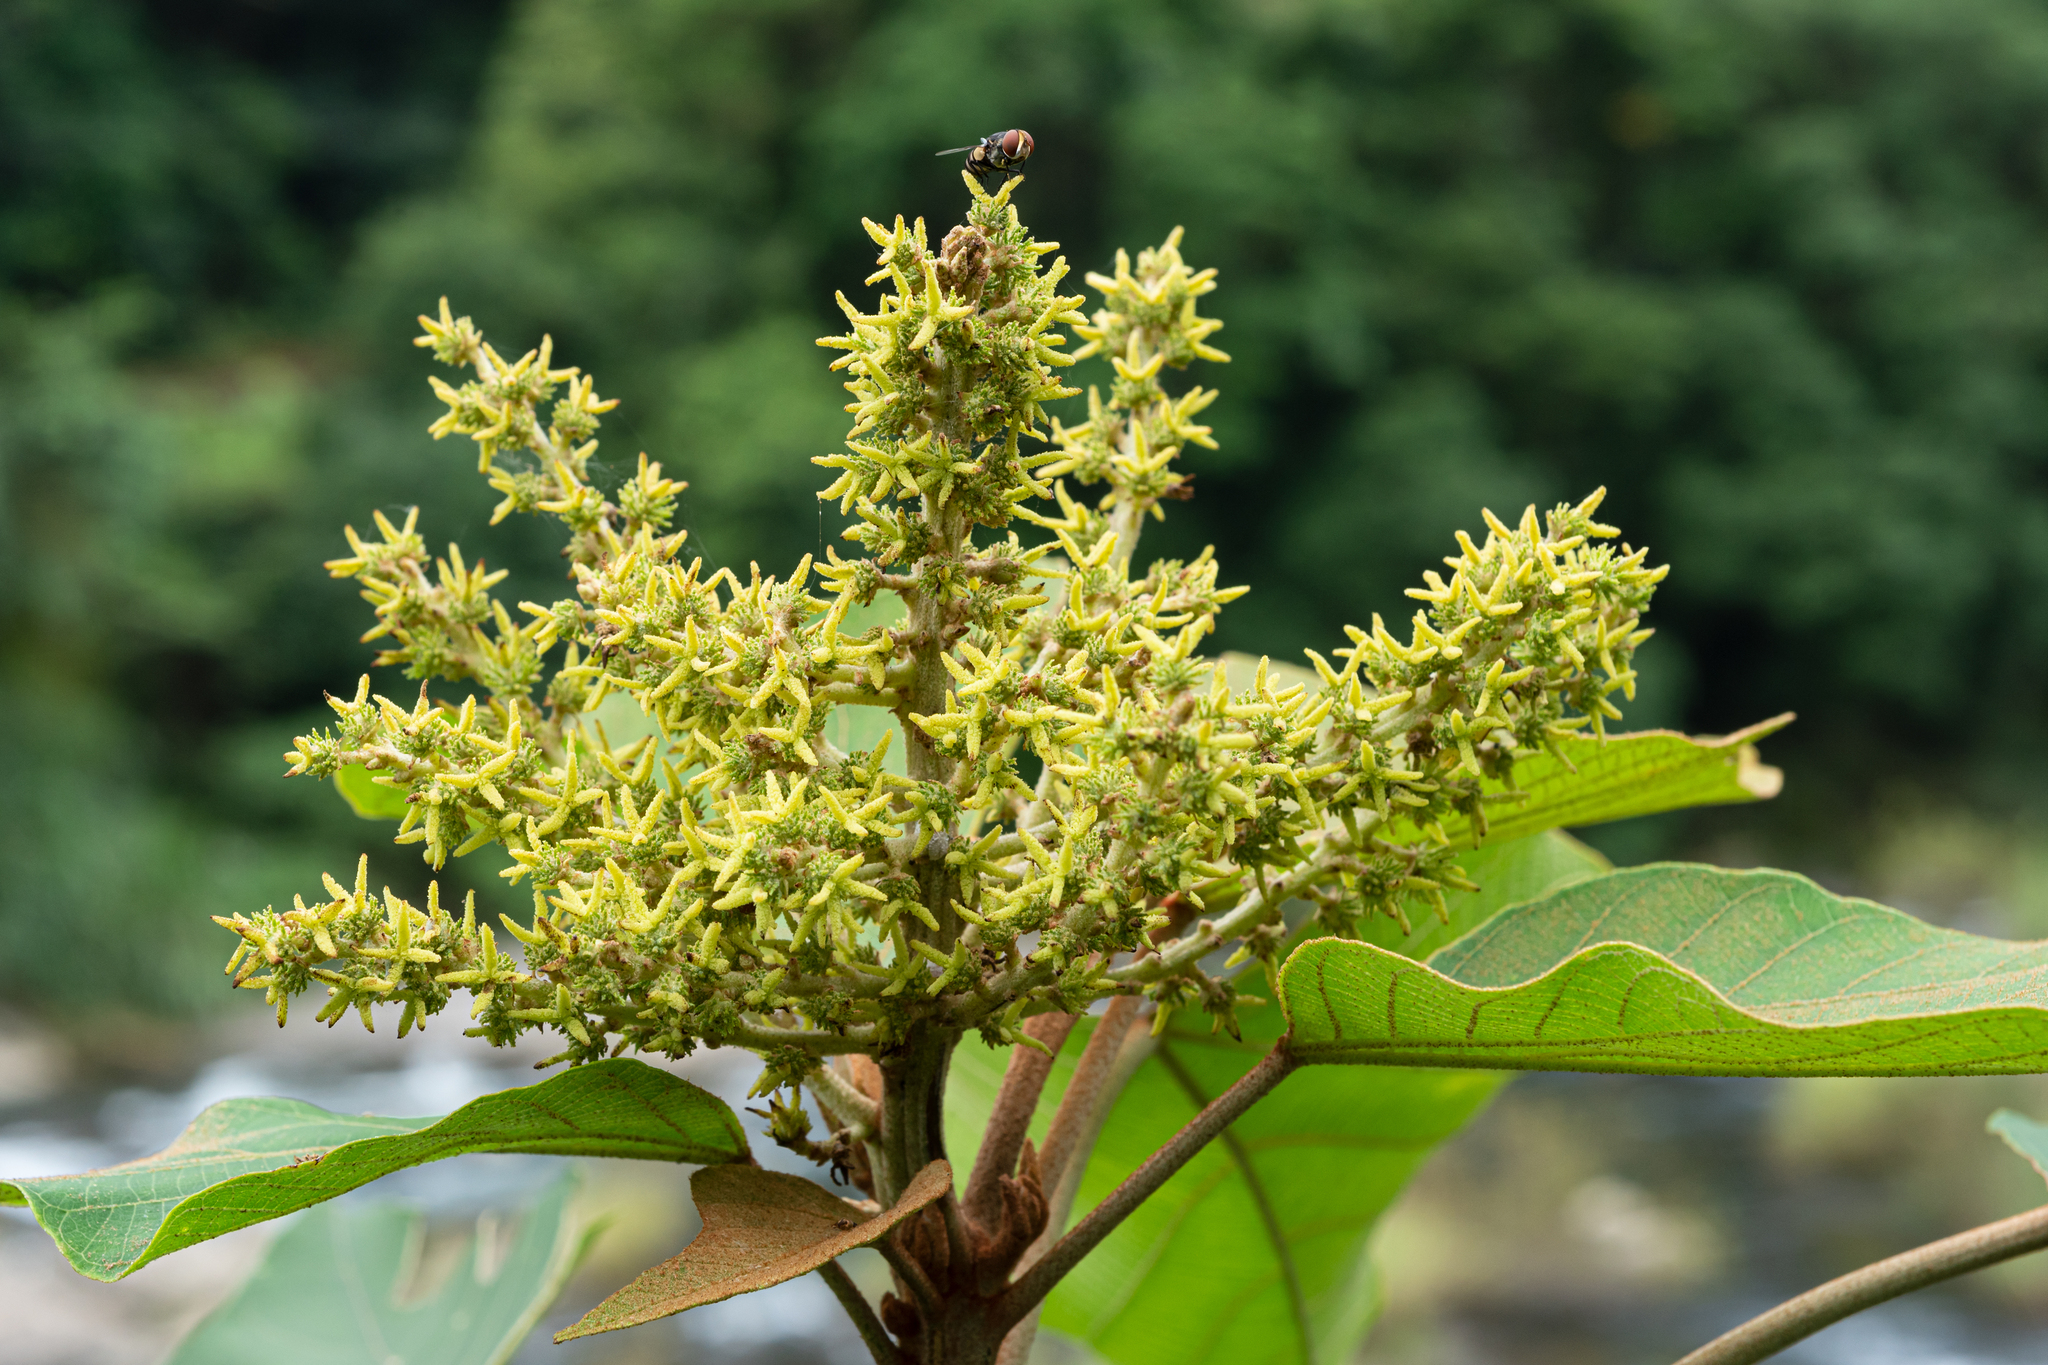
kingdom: Plantae
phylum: Tracheophyta
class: Magnoliopsida
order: Malpighiales
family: Euphorbiaceae
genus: Mallotus
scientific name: Mallotus japonicus
